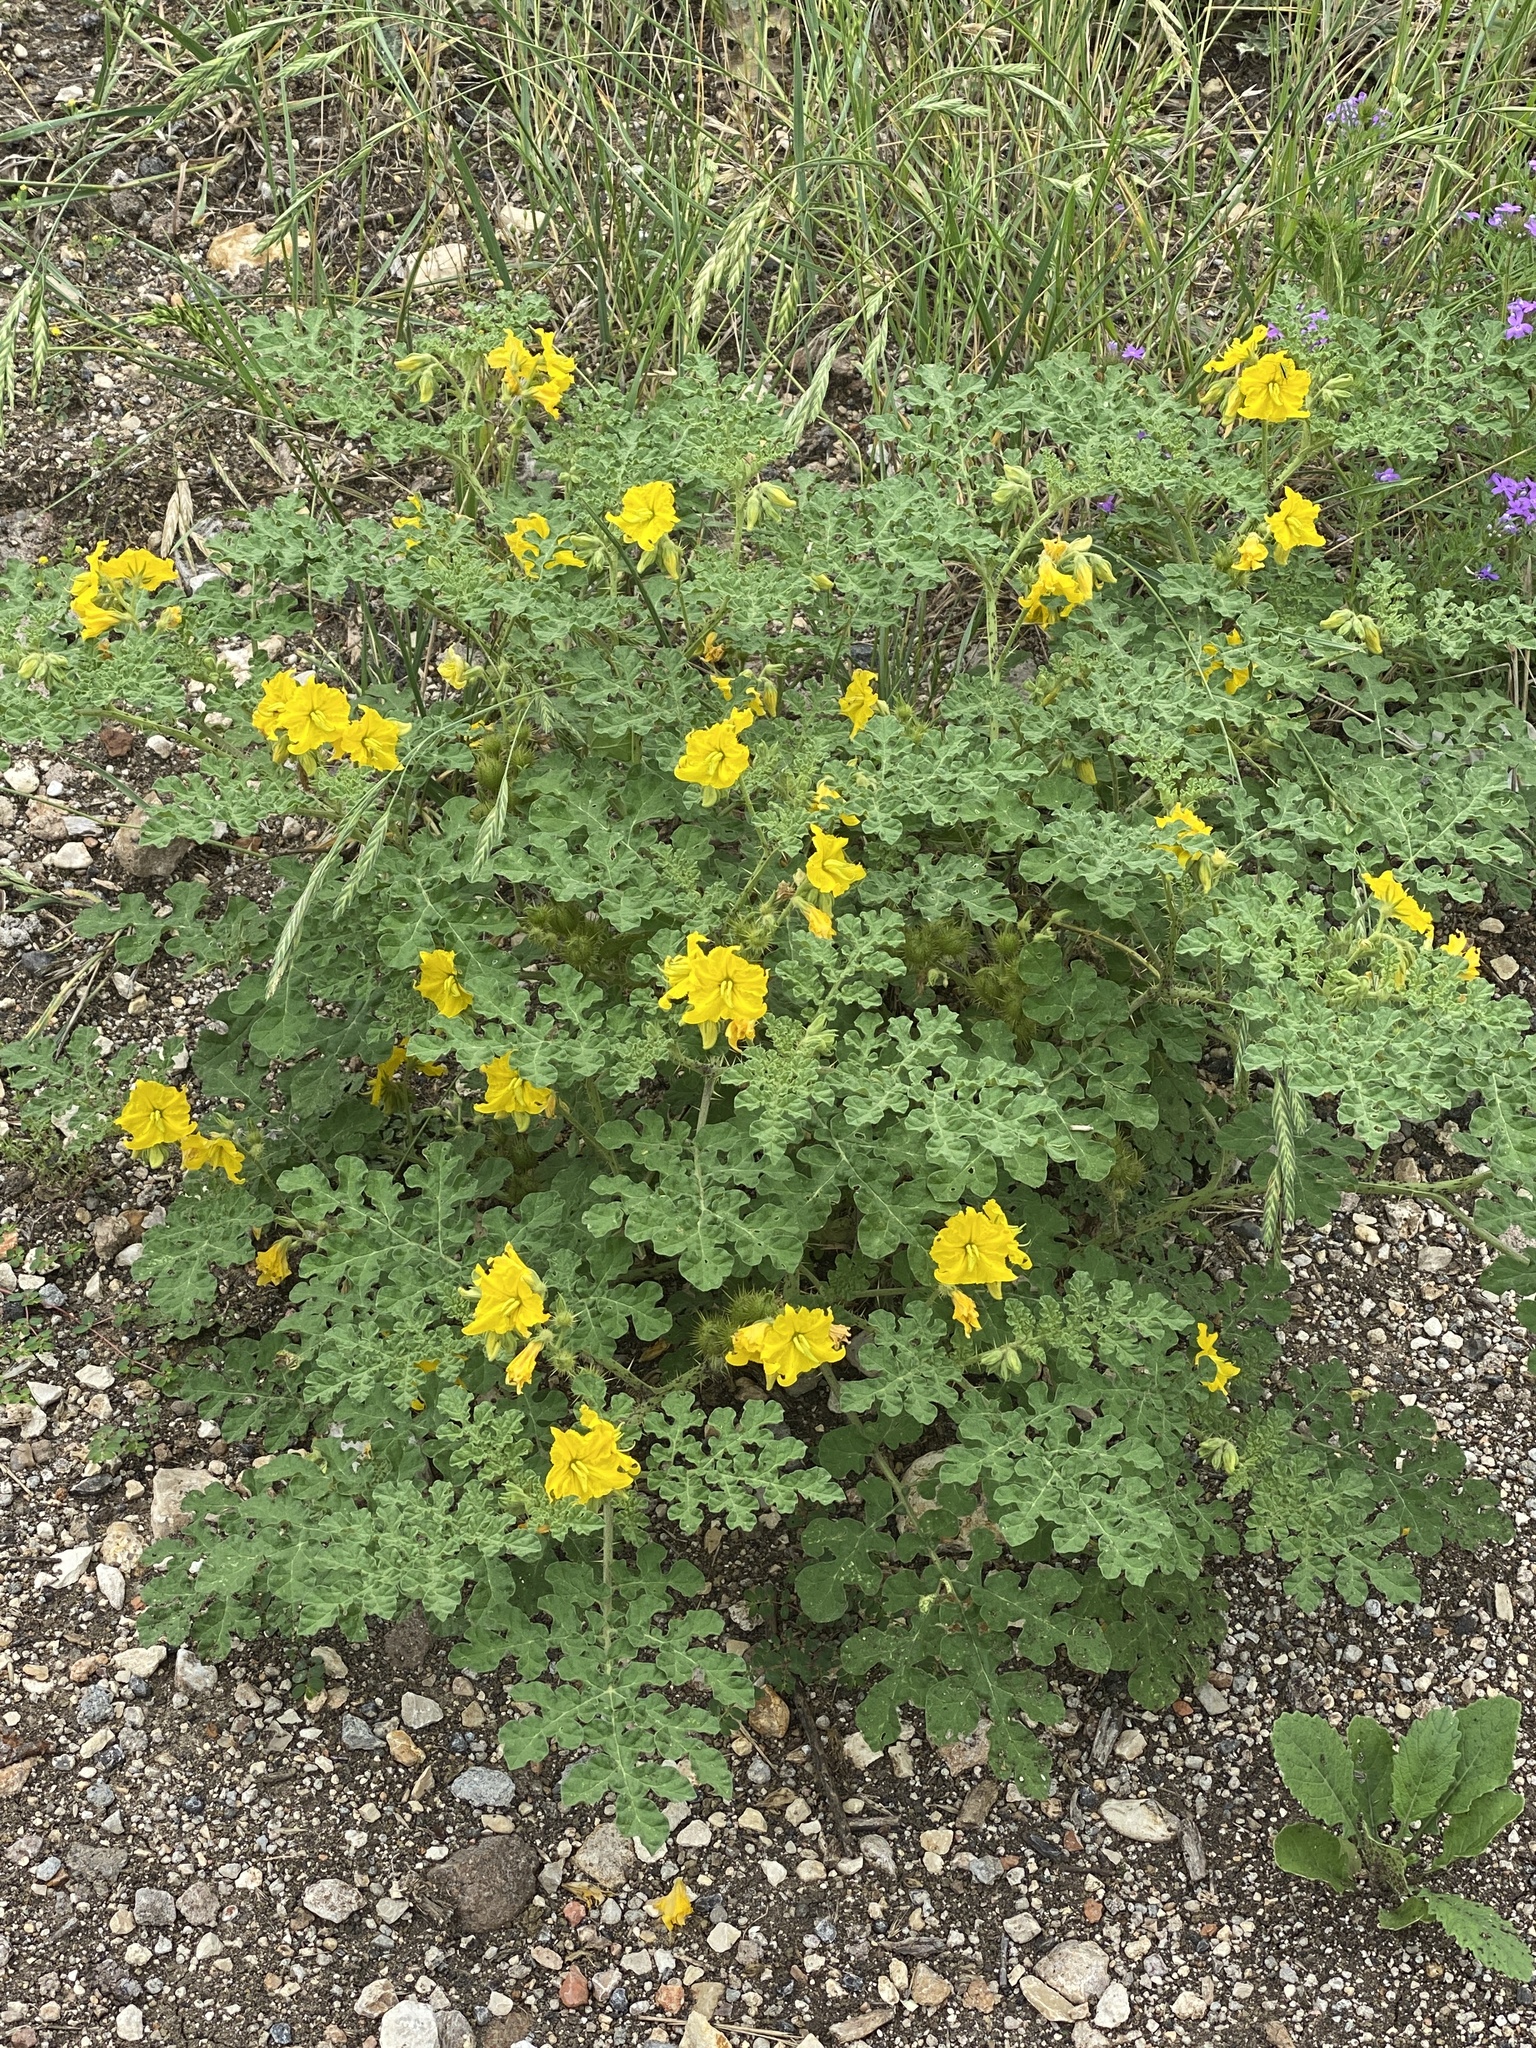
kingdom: Plantae
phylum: Tracheophyta
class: Magnoliopsida
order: Solanales
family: Solanaceae
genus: Solanum
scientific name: Solanum angustifolium
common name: Buffalobur nightshade
